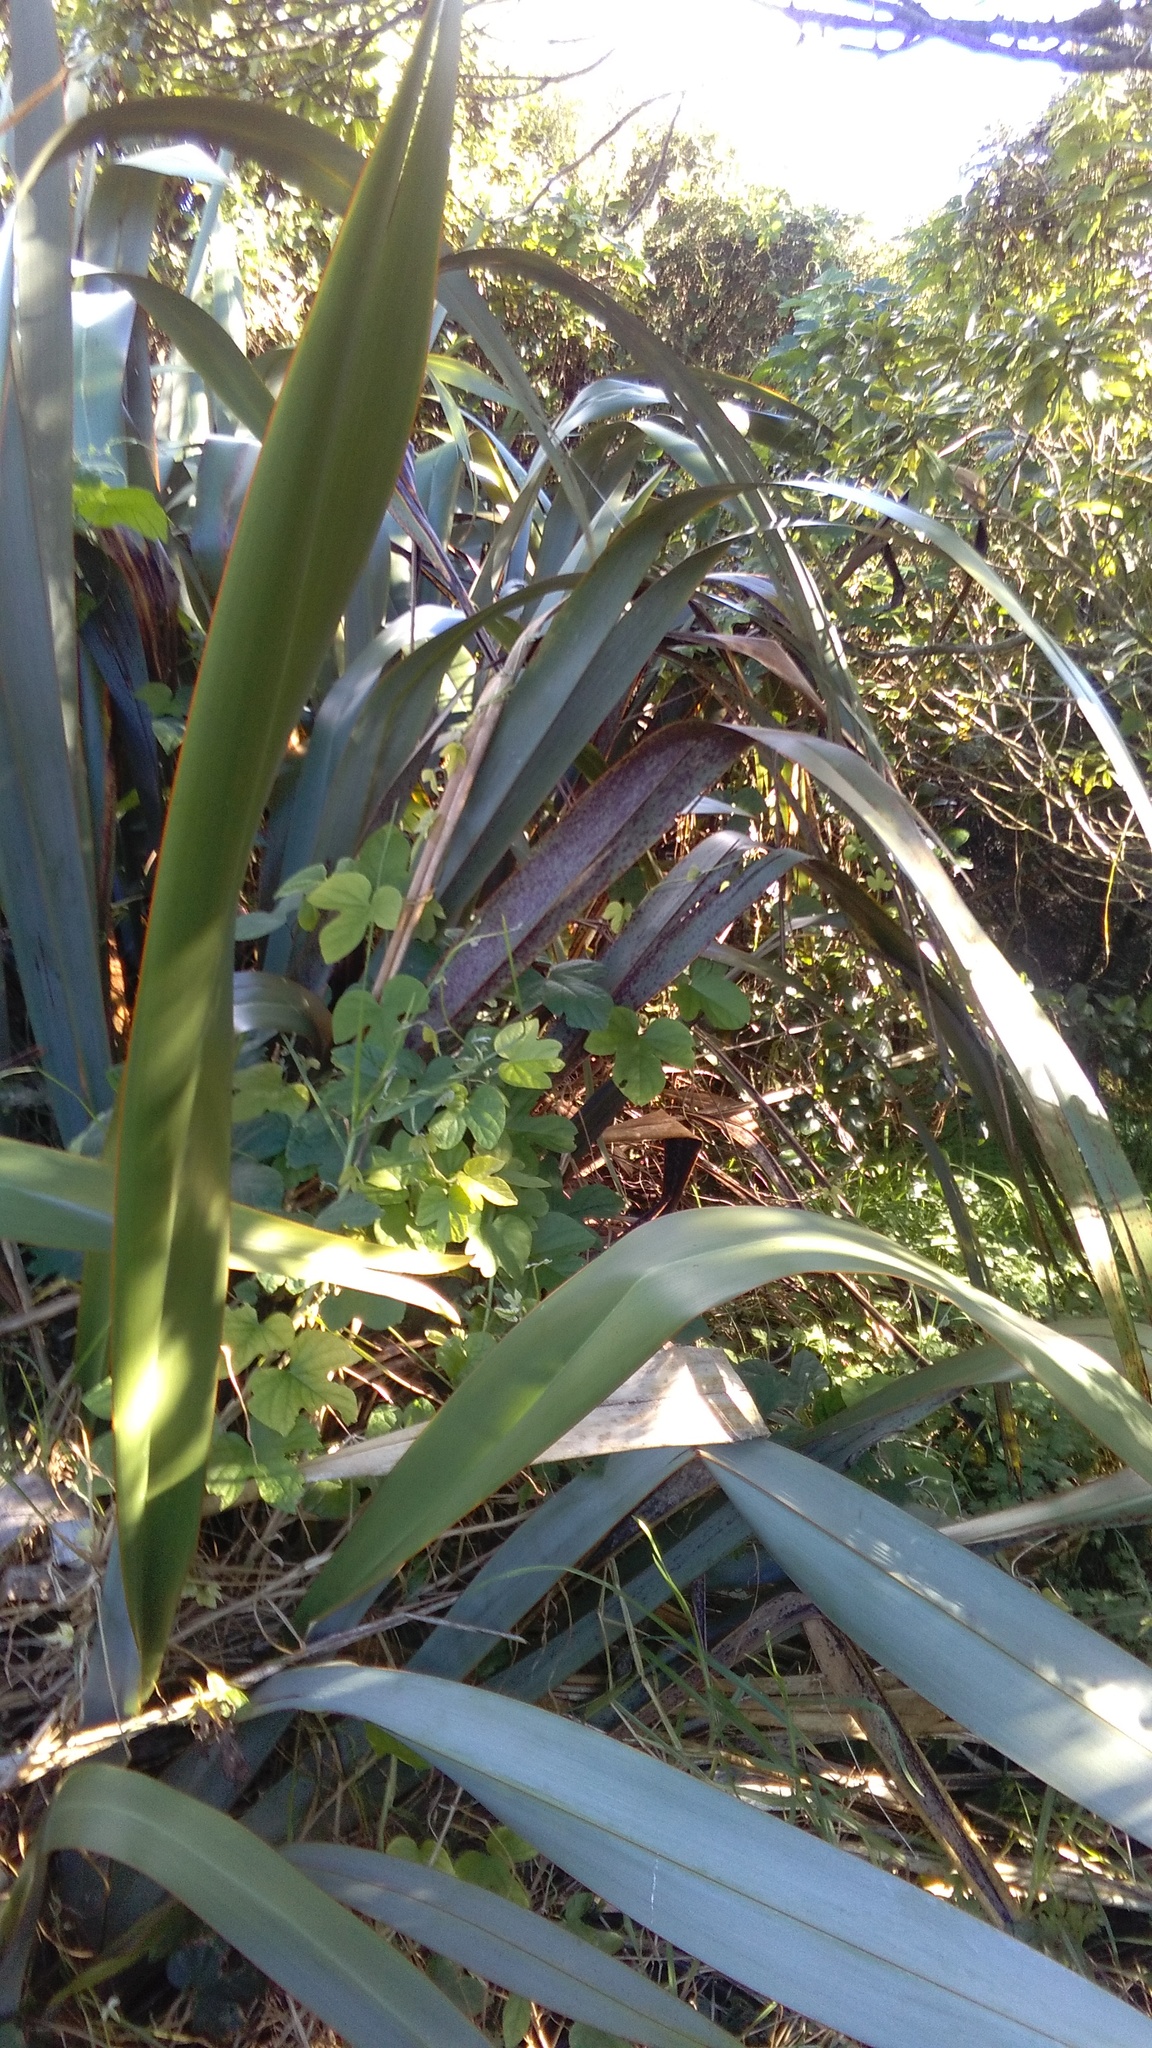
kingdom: Plantae
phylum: Tracheophyta
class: Magnoliopsida
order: Solanales
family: Convolvulaceae
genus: Ipomoea
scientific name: Ipomoea indica
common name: Blue dawnflower
